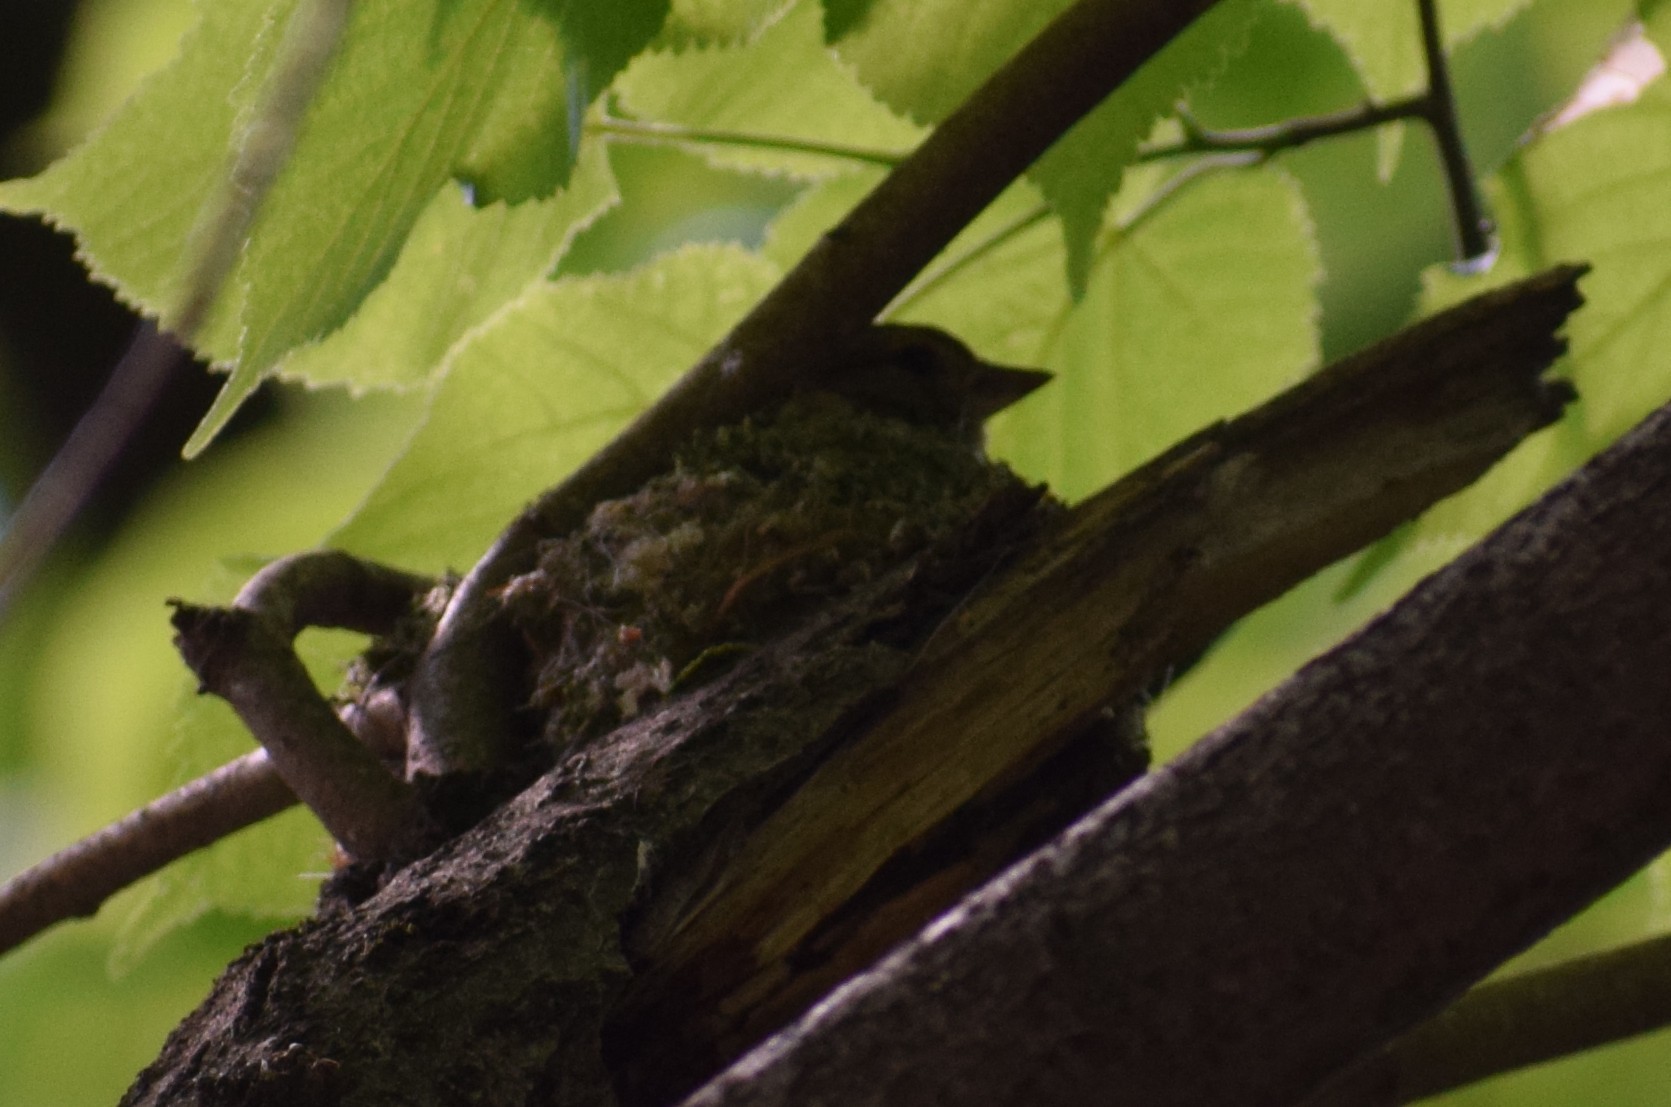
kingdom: Animalia
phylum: Chordata
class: Aves
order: Passeriformes
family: Fringillidae
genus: Fringilla
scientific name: Fringilla coelebs
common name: Common chaffinch
